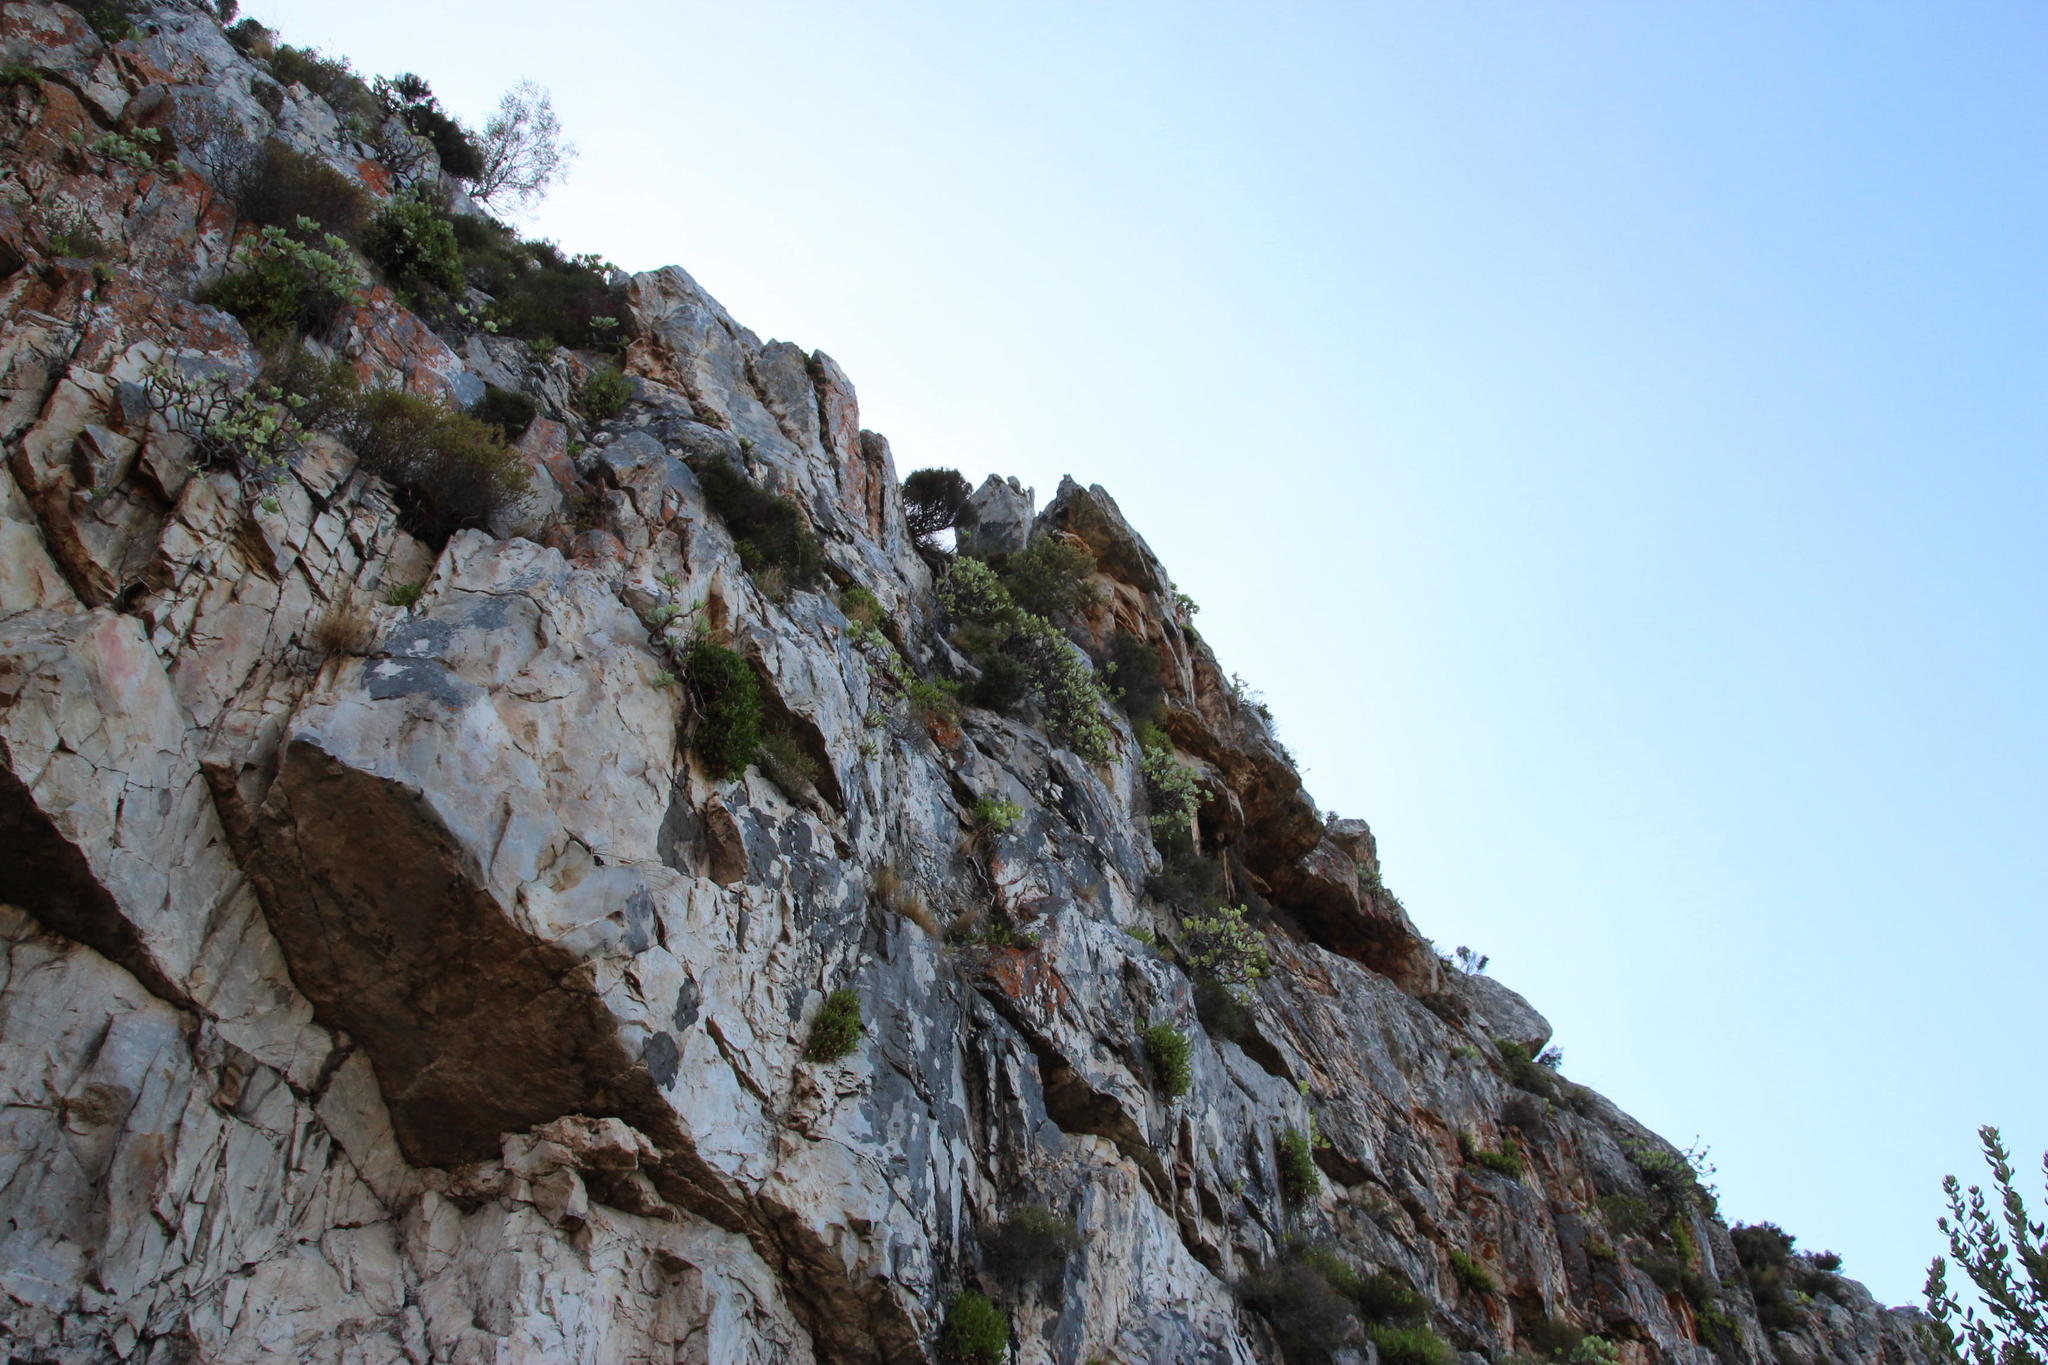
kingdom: Plantae
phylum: Tracheophyta
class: Magnoliopsida
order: Asterales
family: Asteraceae
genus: Othonna
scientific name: Othonna dentata
